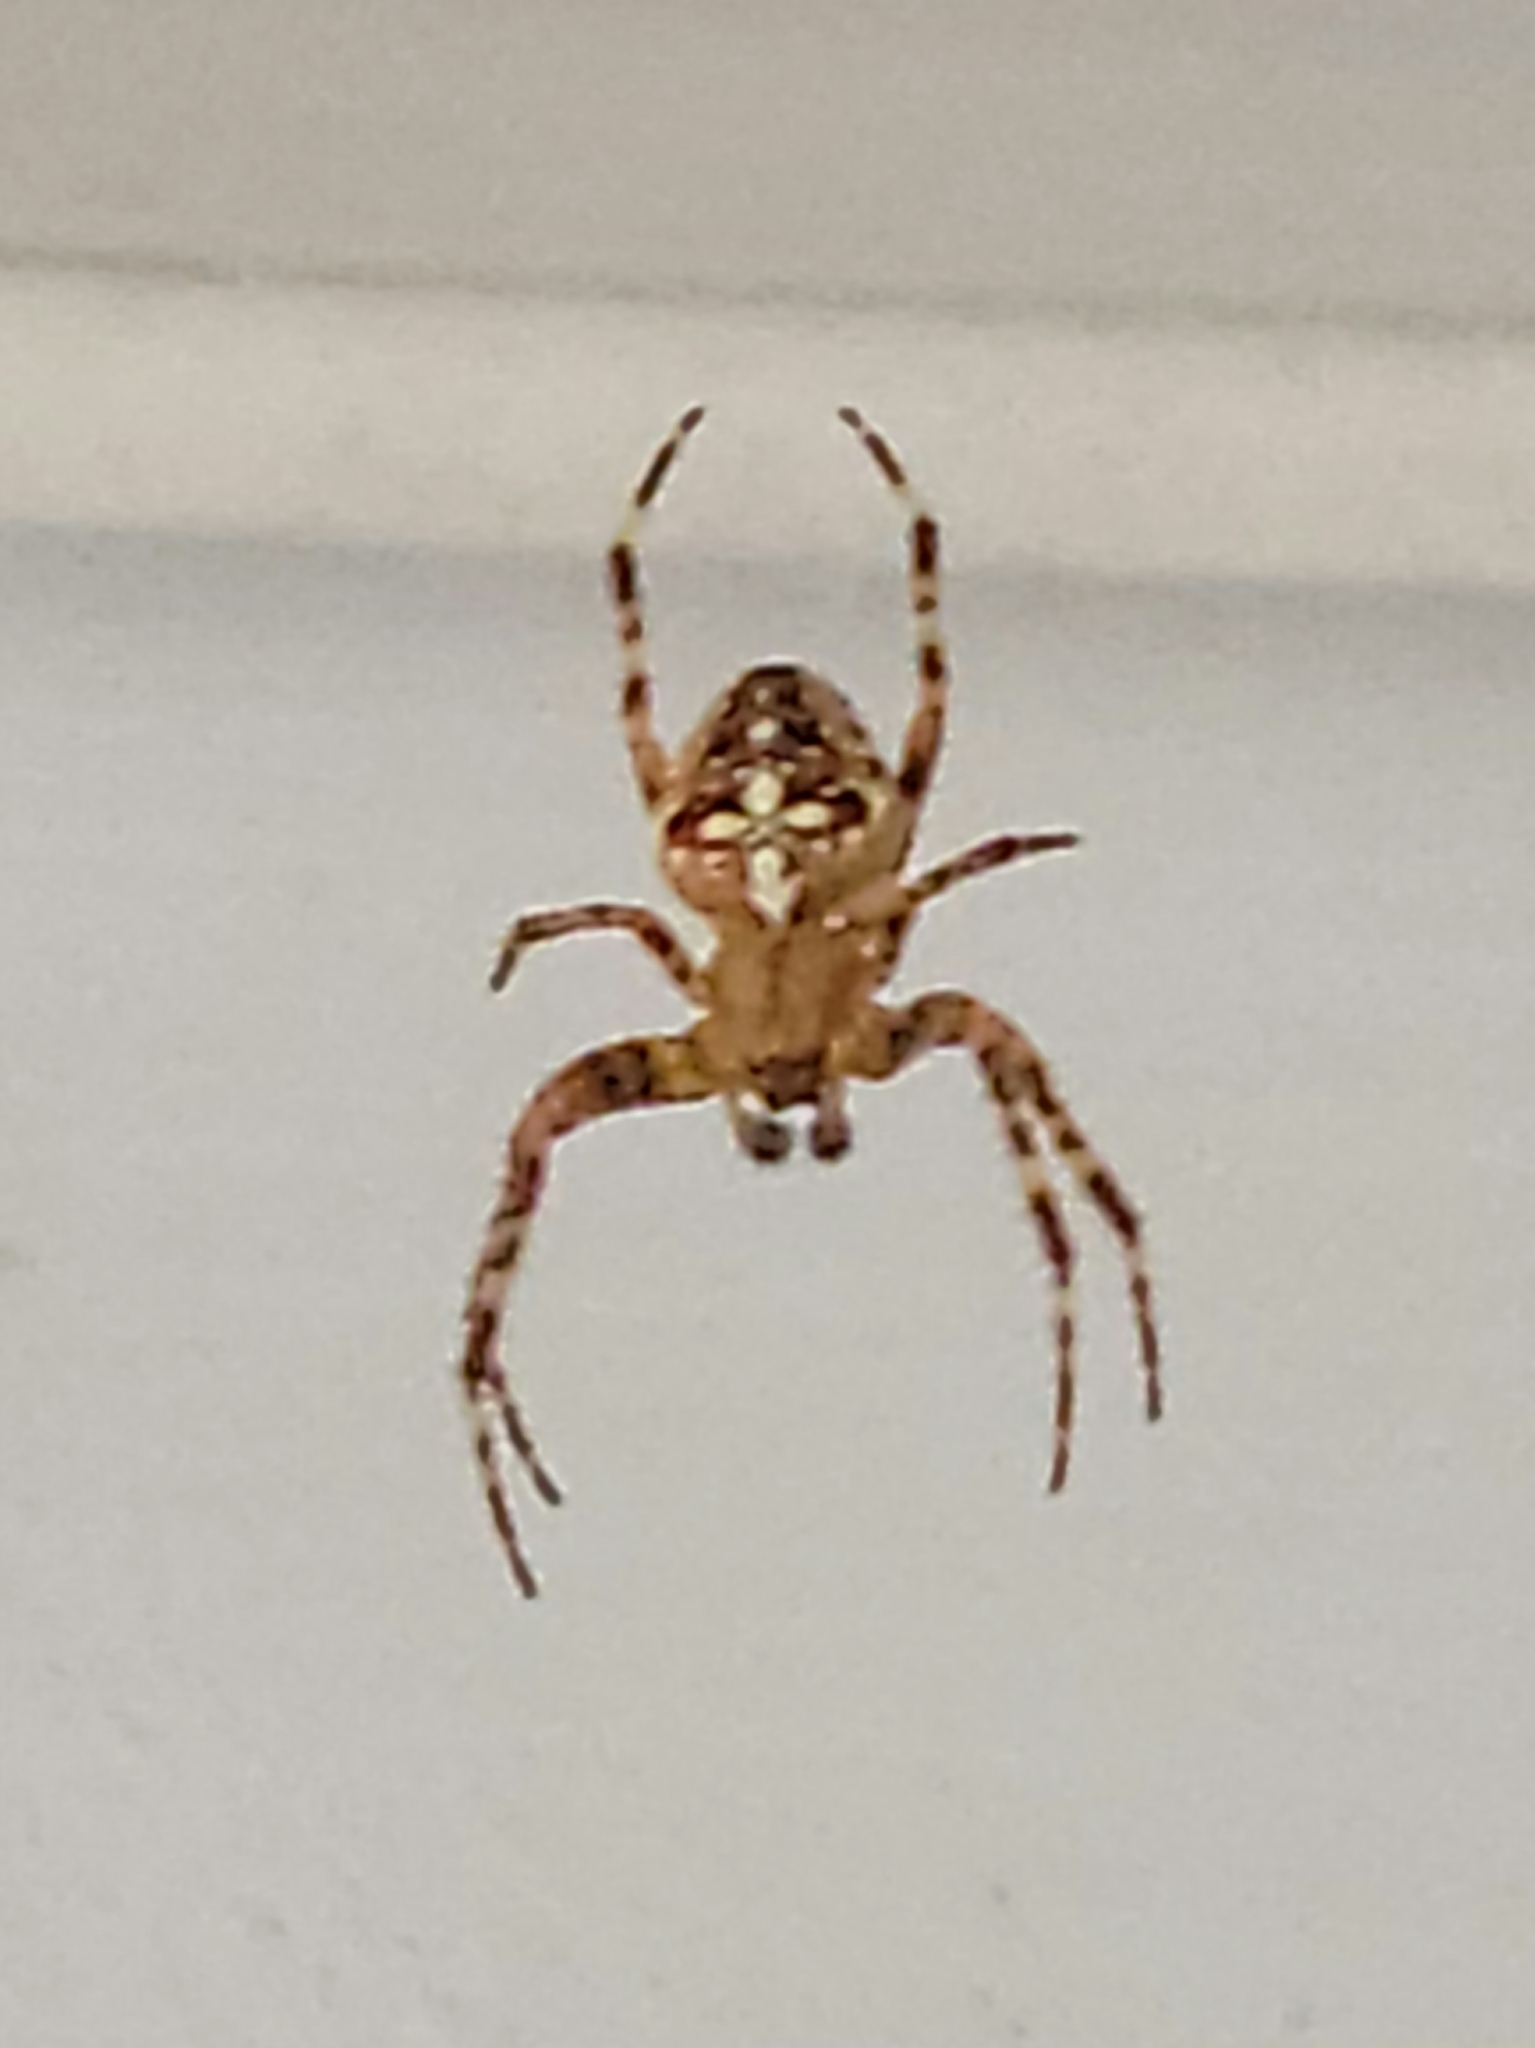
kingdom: Animalia
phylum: Arthropoda
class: Arachnida
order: Araneae
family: Araneidae
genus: Araneus
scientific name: Araneus diadematus
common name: Cross orbweaver
